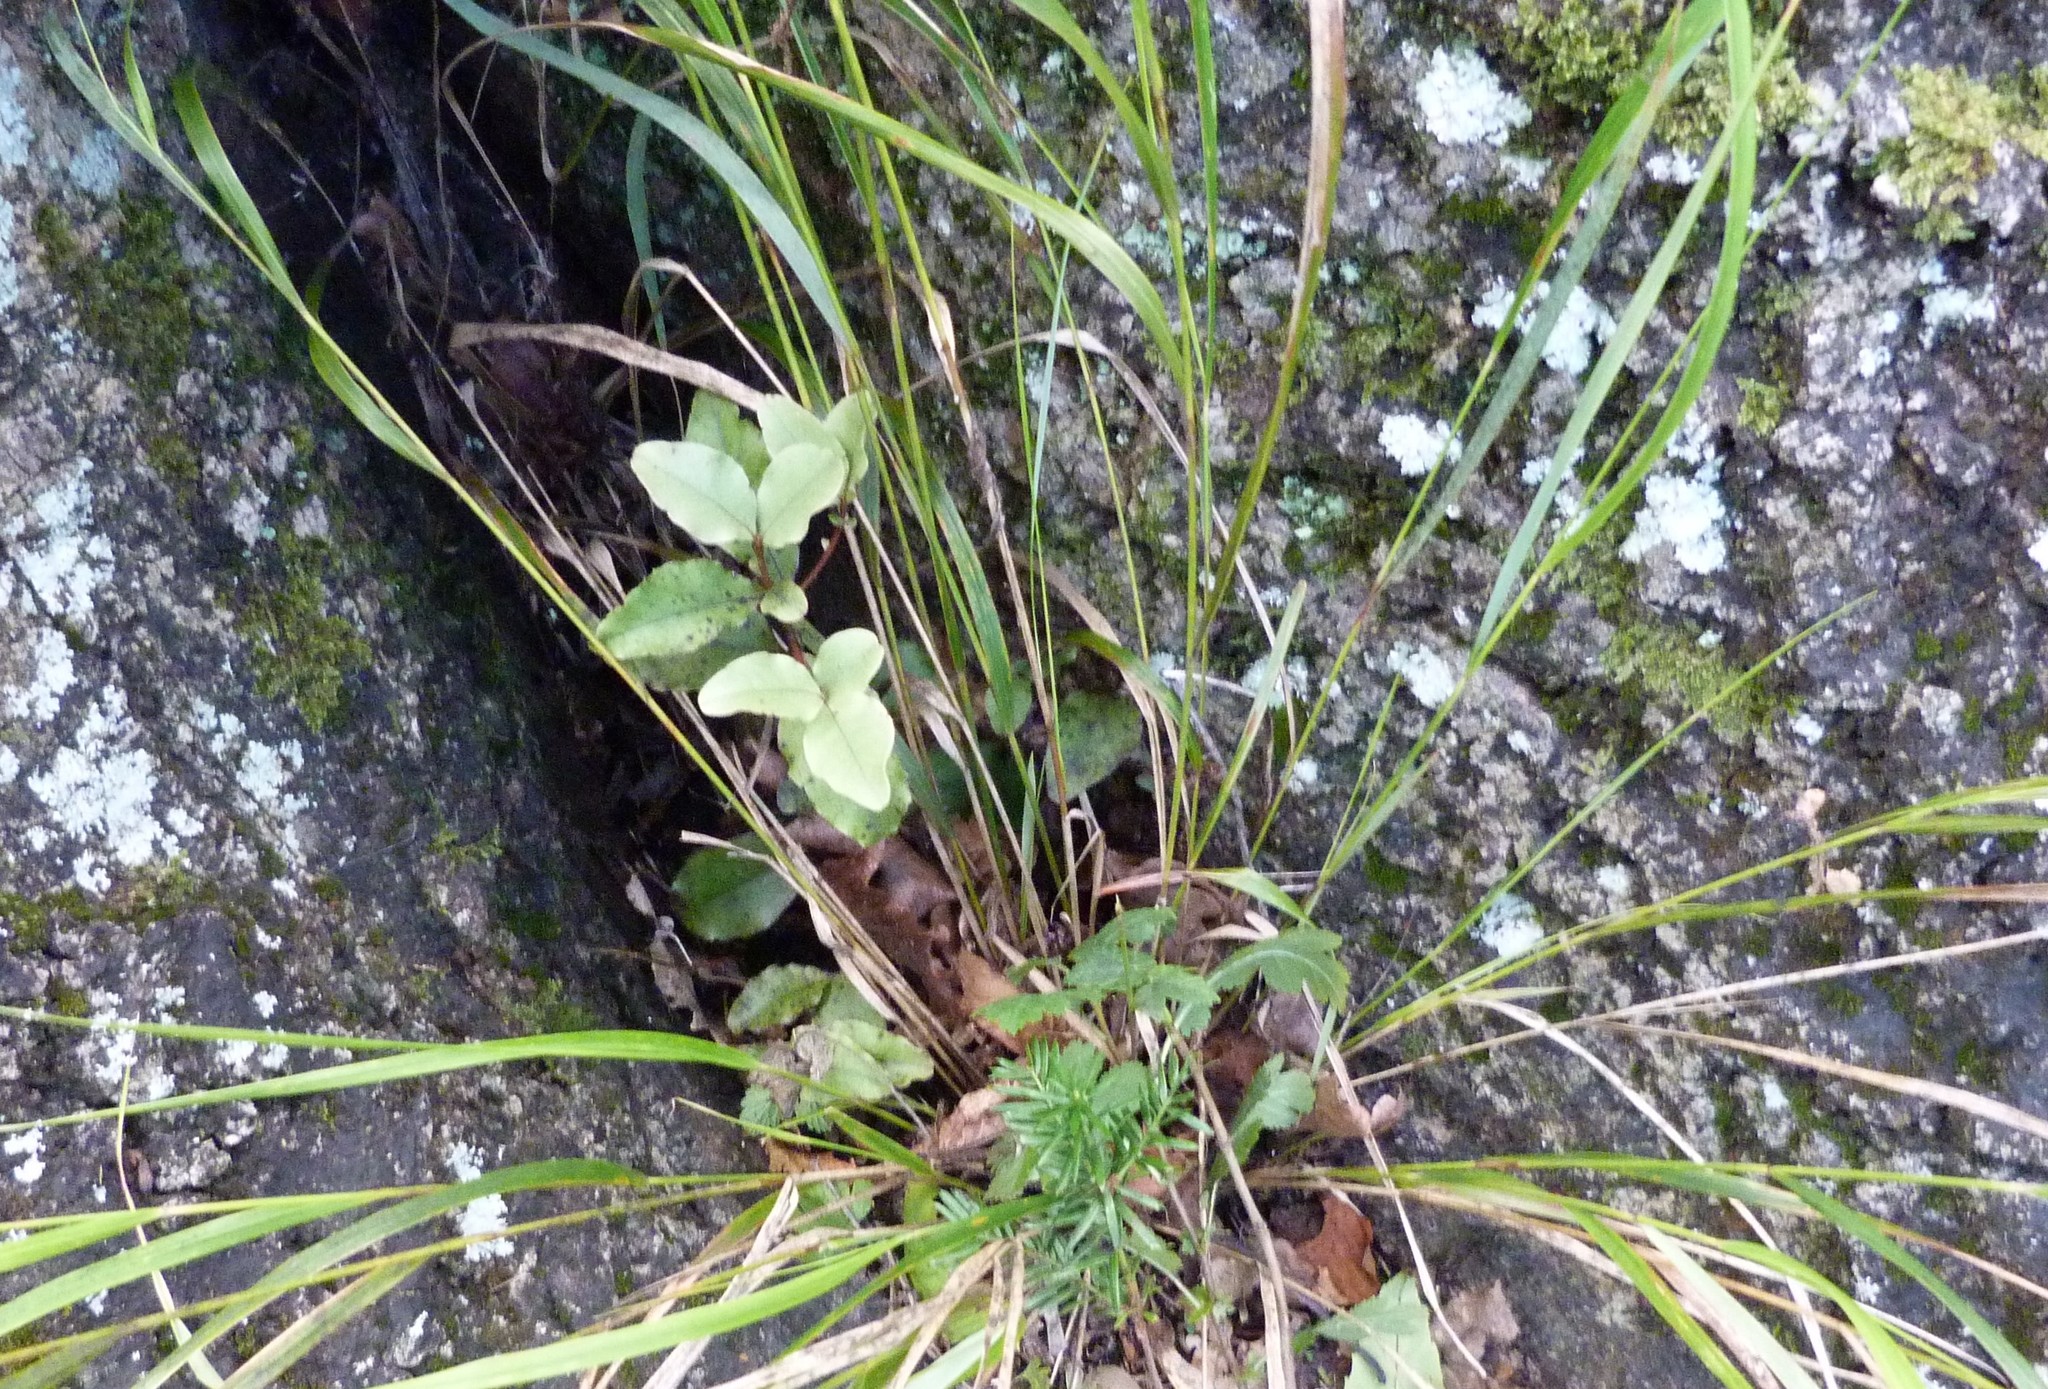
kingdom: Plantae
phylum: Tracheophyta
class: Magnoliopsida
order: Ericales
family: Primulaceae
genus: Myrsine
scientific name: Myrsine australis
